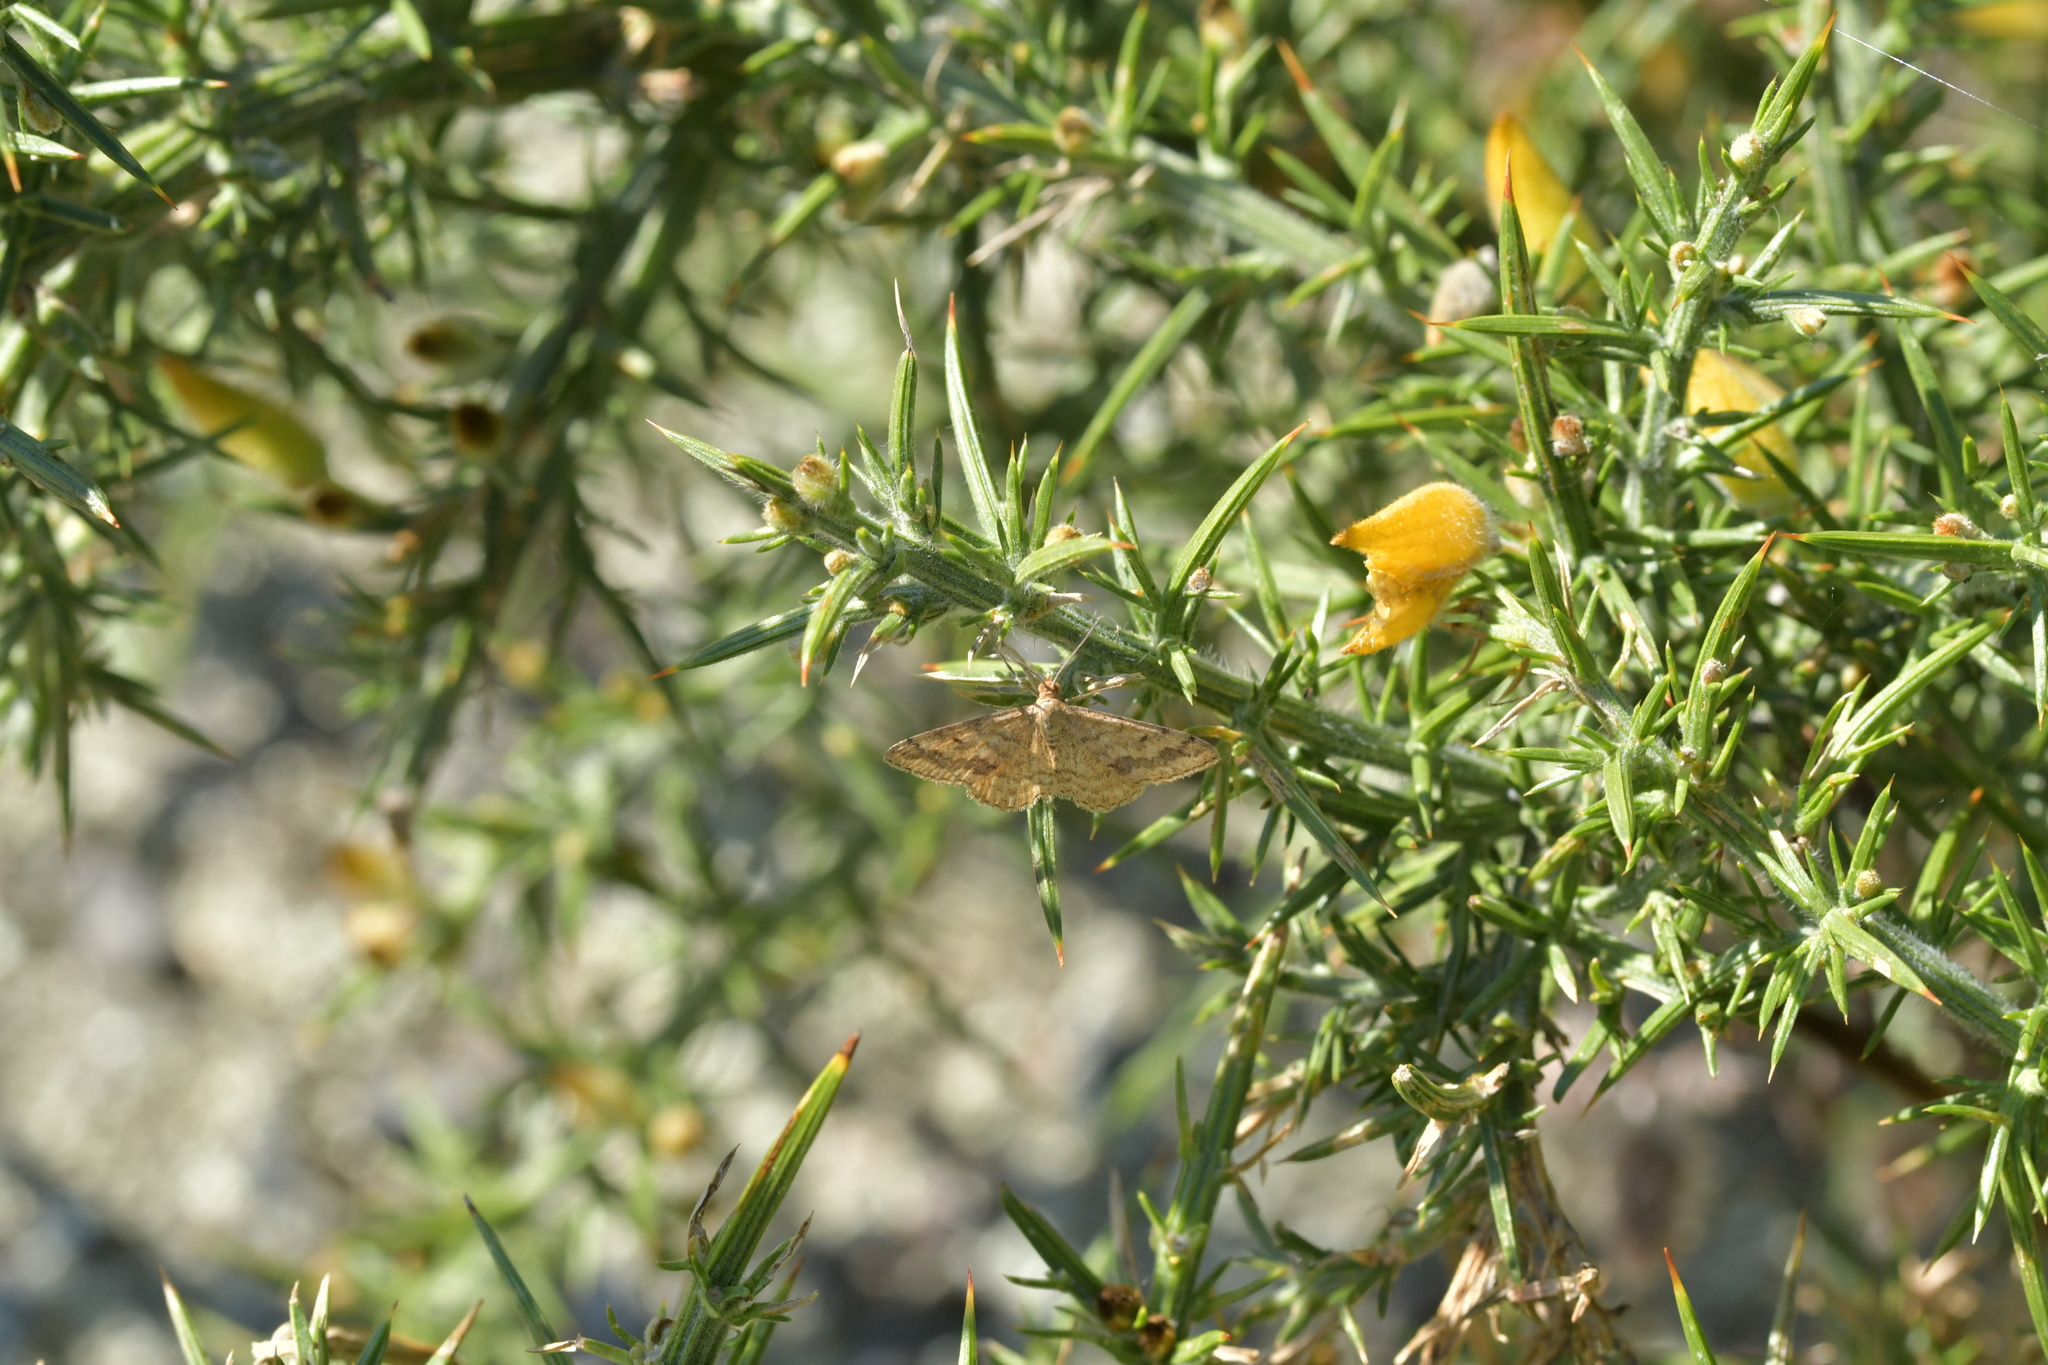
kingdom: Animalia
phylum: Arthropoda
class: Insecta
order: Lepidoptera
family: Geometridae
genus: Scopula
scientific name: Scopula rubraria
